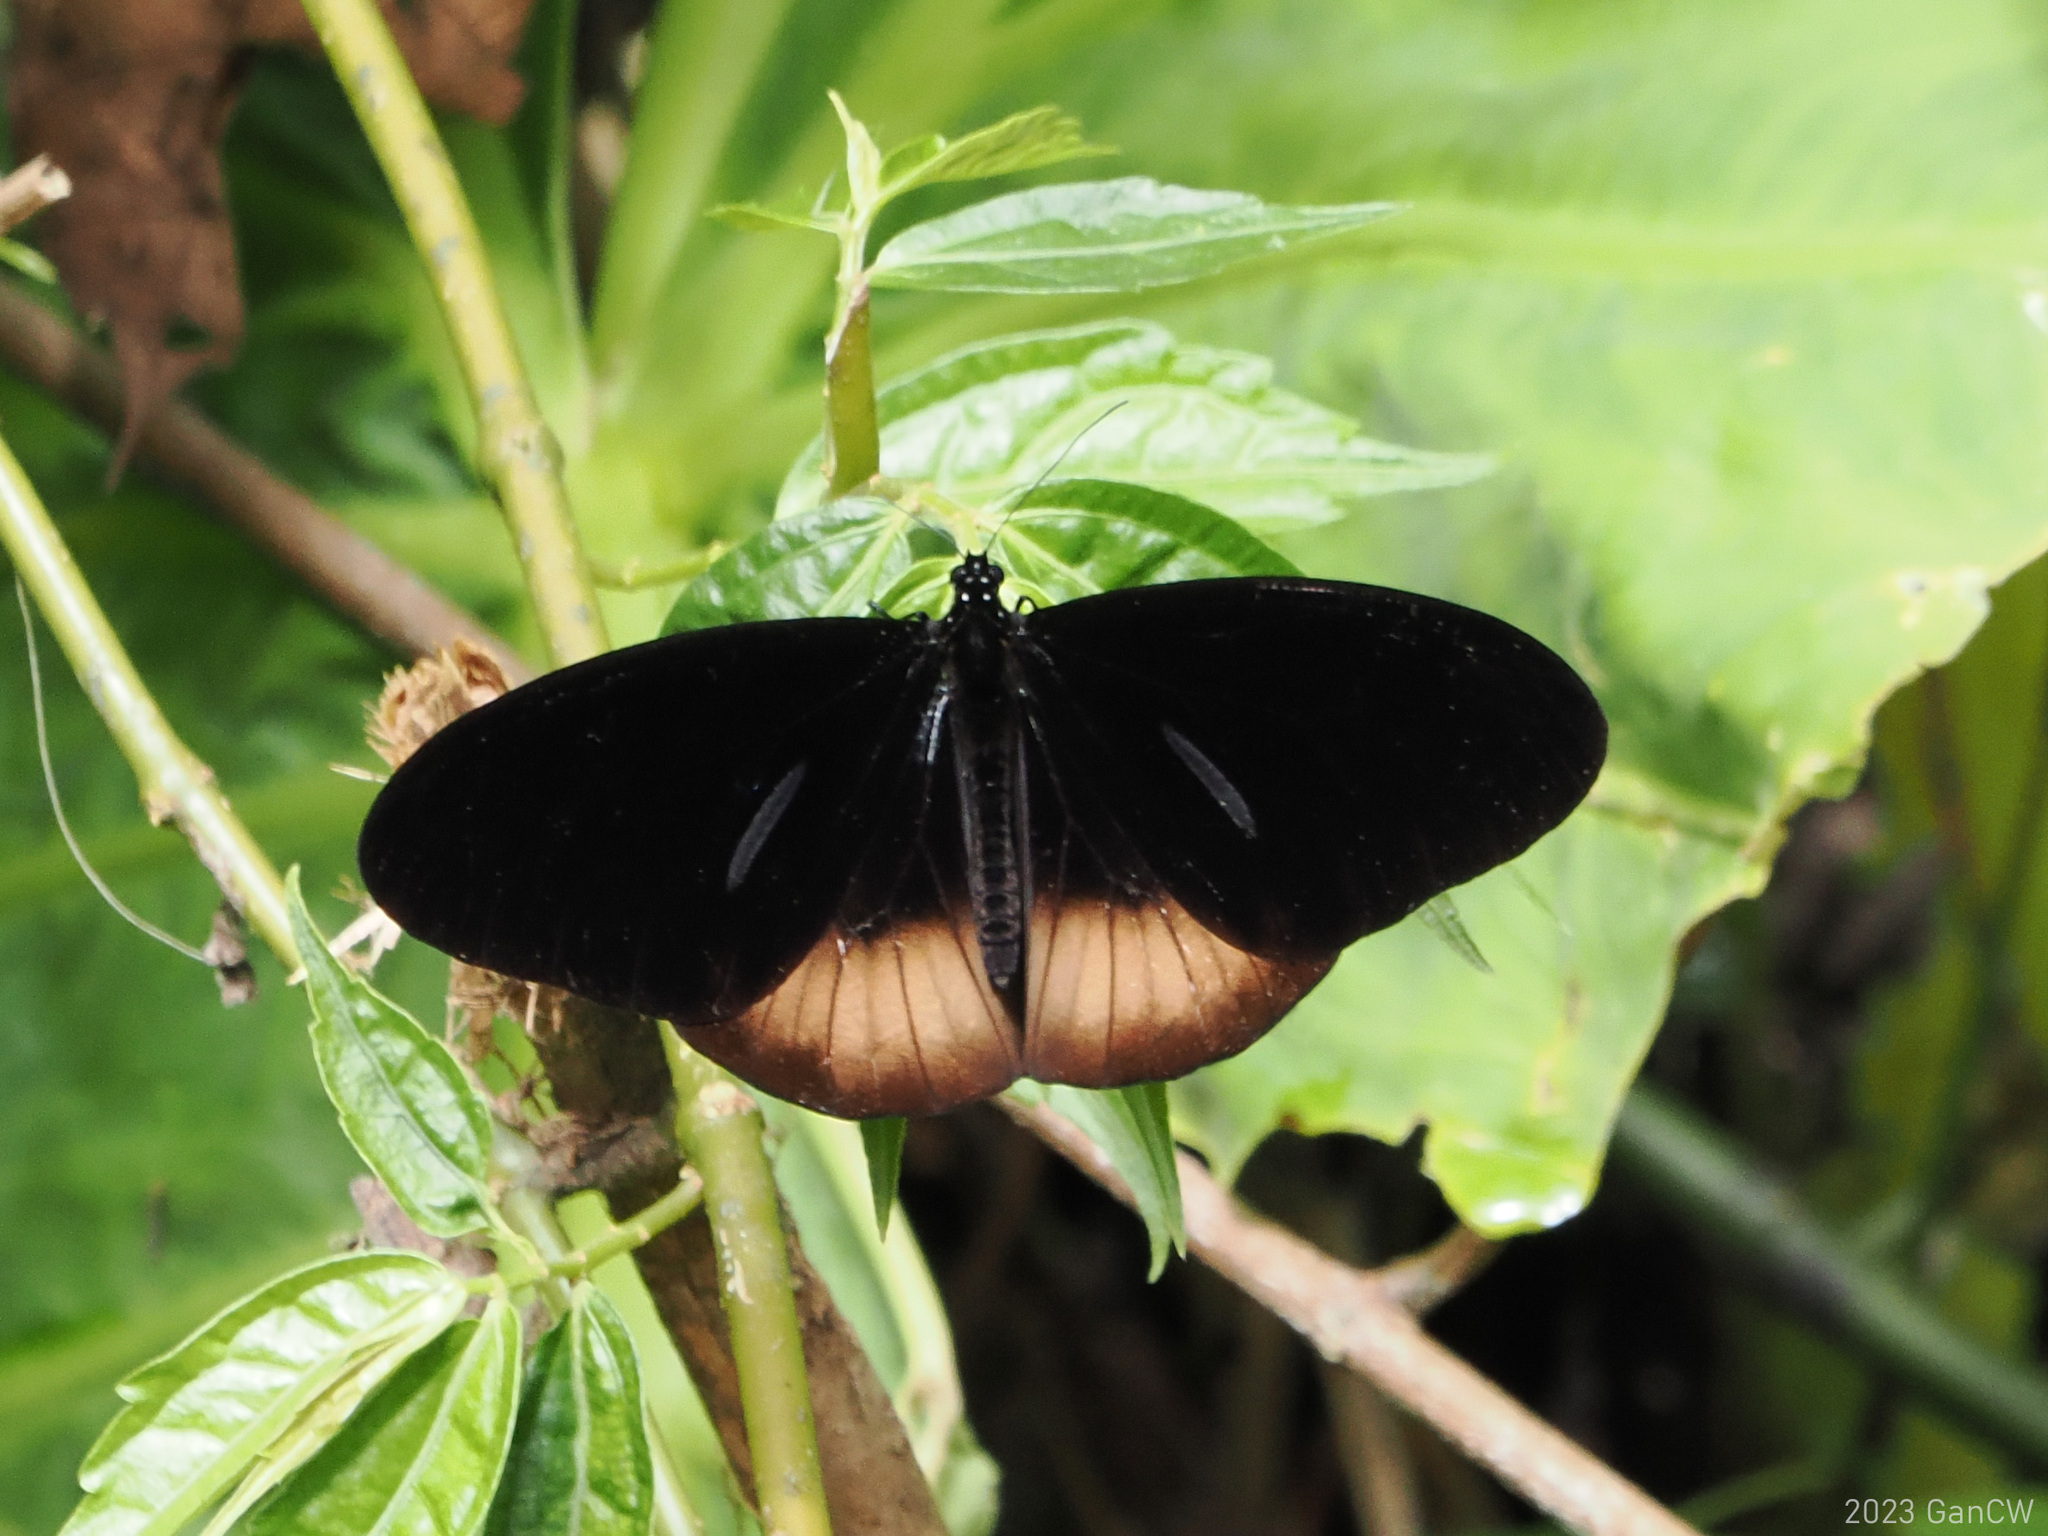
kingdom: Animalia
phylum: Arthropoda
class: Insecta
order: Lepidoptera
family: Nymphalidae
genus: Euploea
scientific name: Euploea magou
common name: Magou
